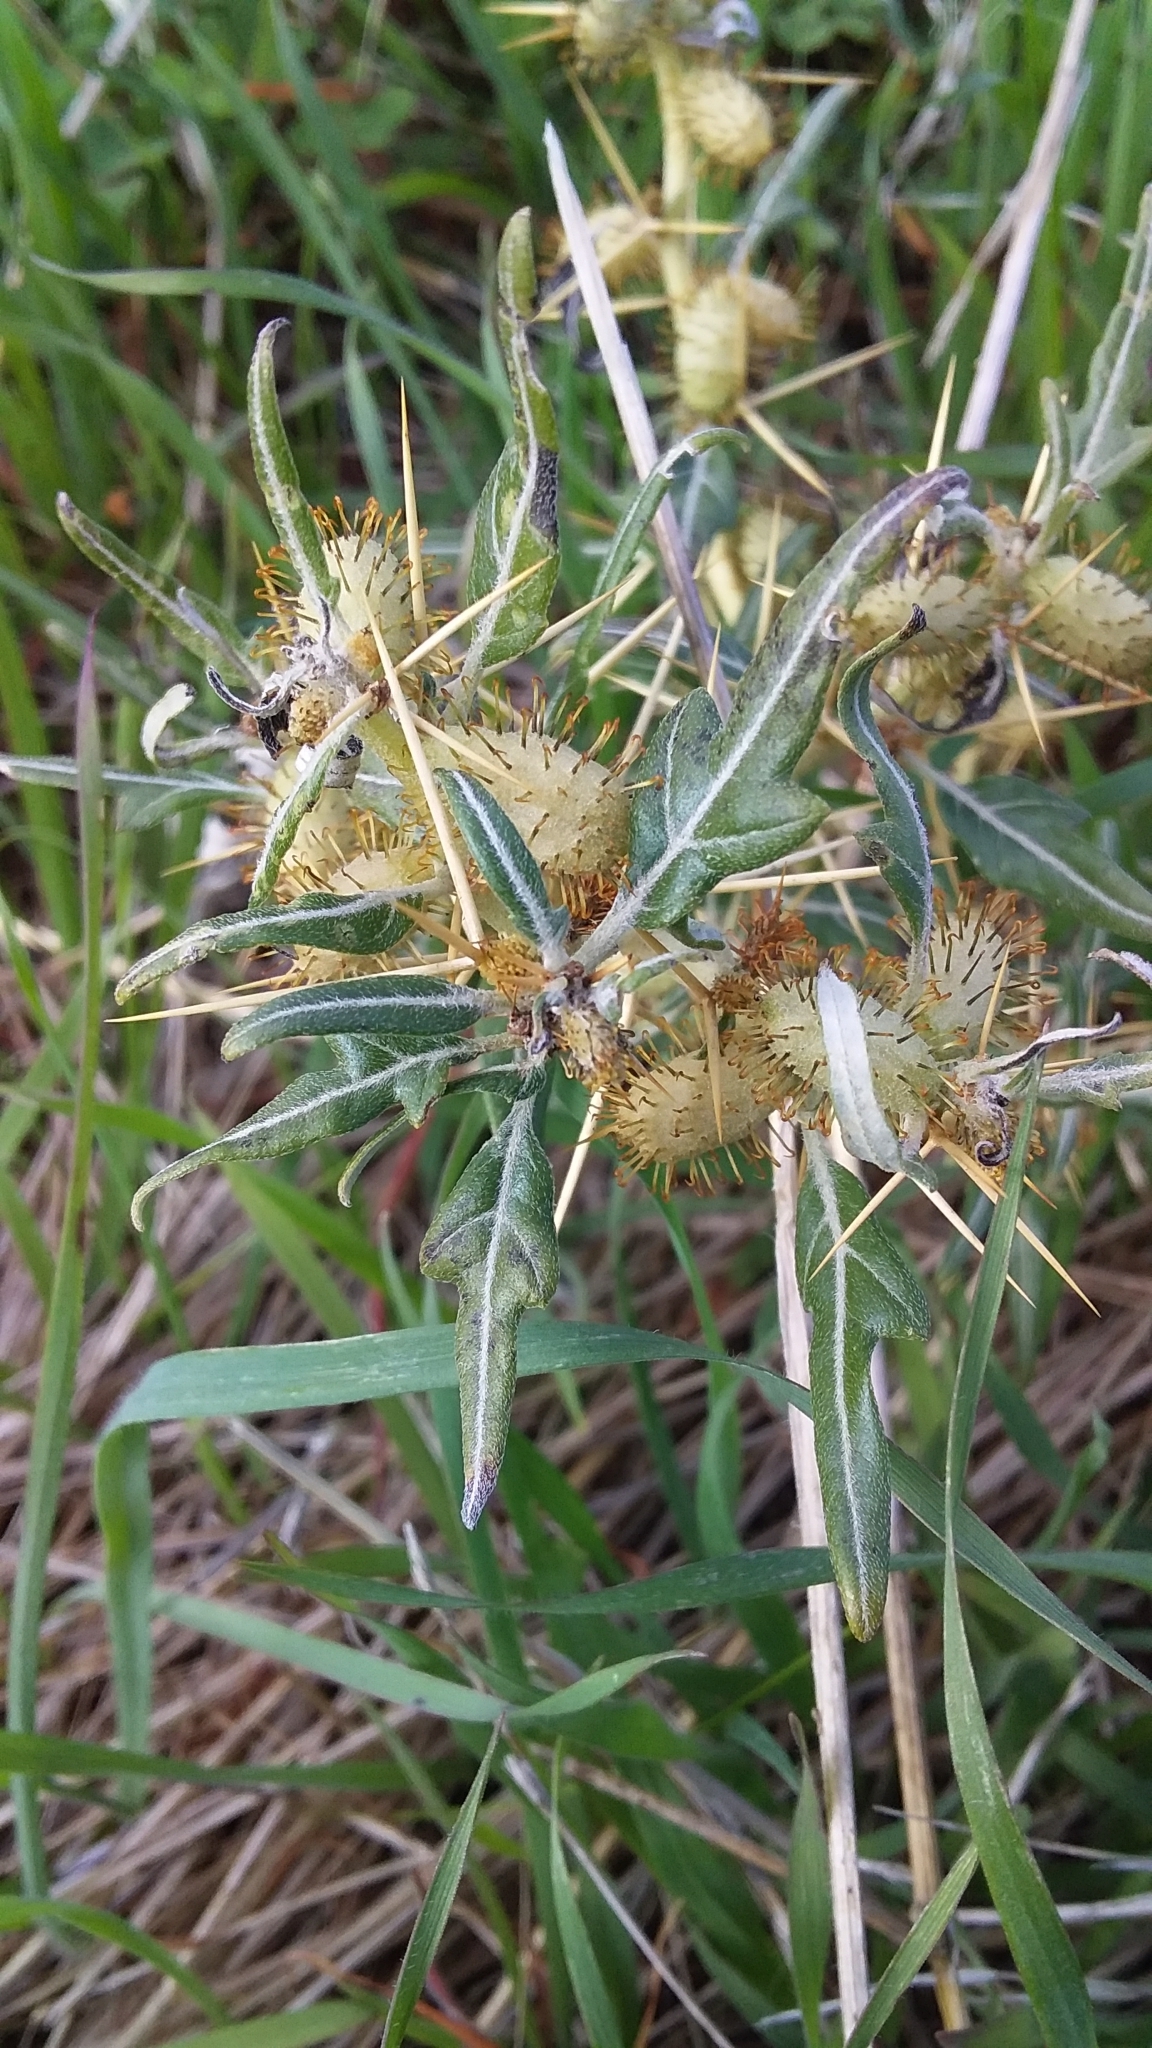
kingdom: Plantae
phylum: Tracheophyta
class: Magnoliopsida
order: Asterales
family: Asteraceae
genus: Xanthium
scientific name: Xanthium spinosum
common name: Spiny cocklebur
